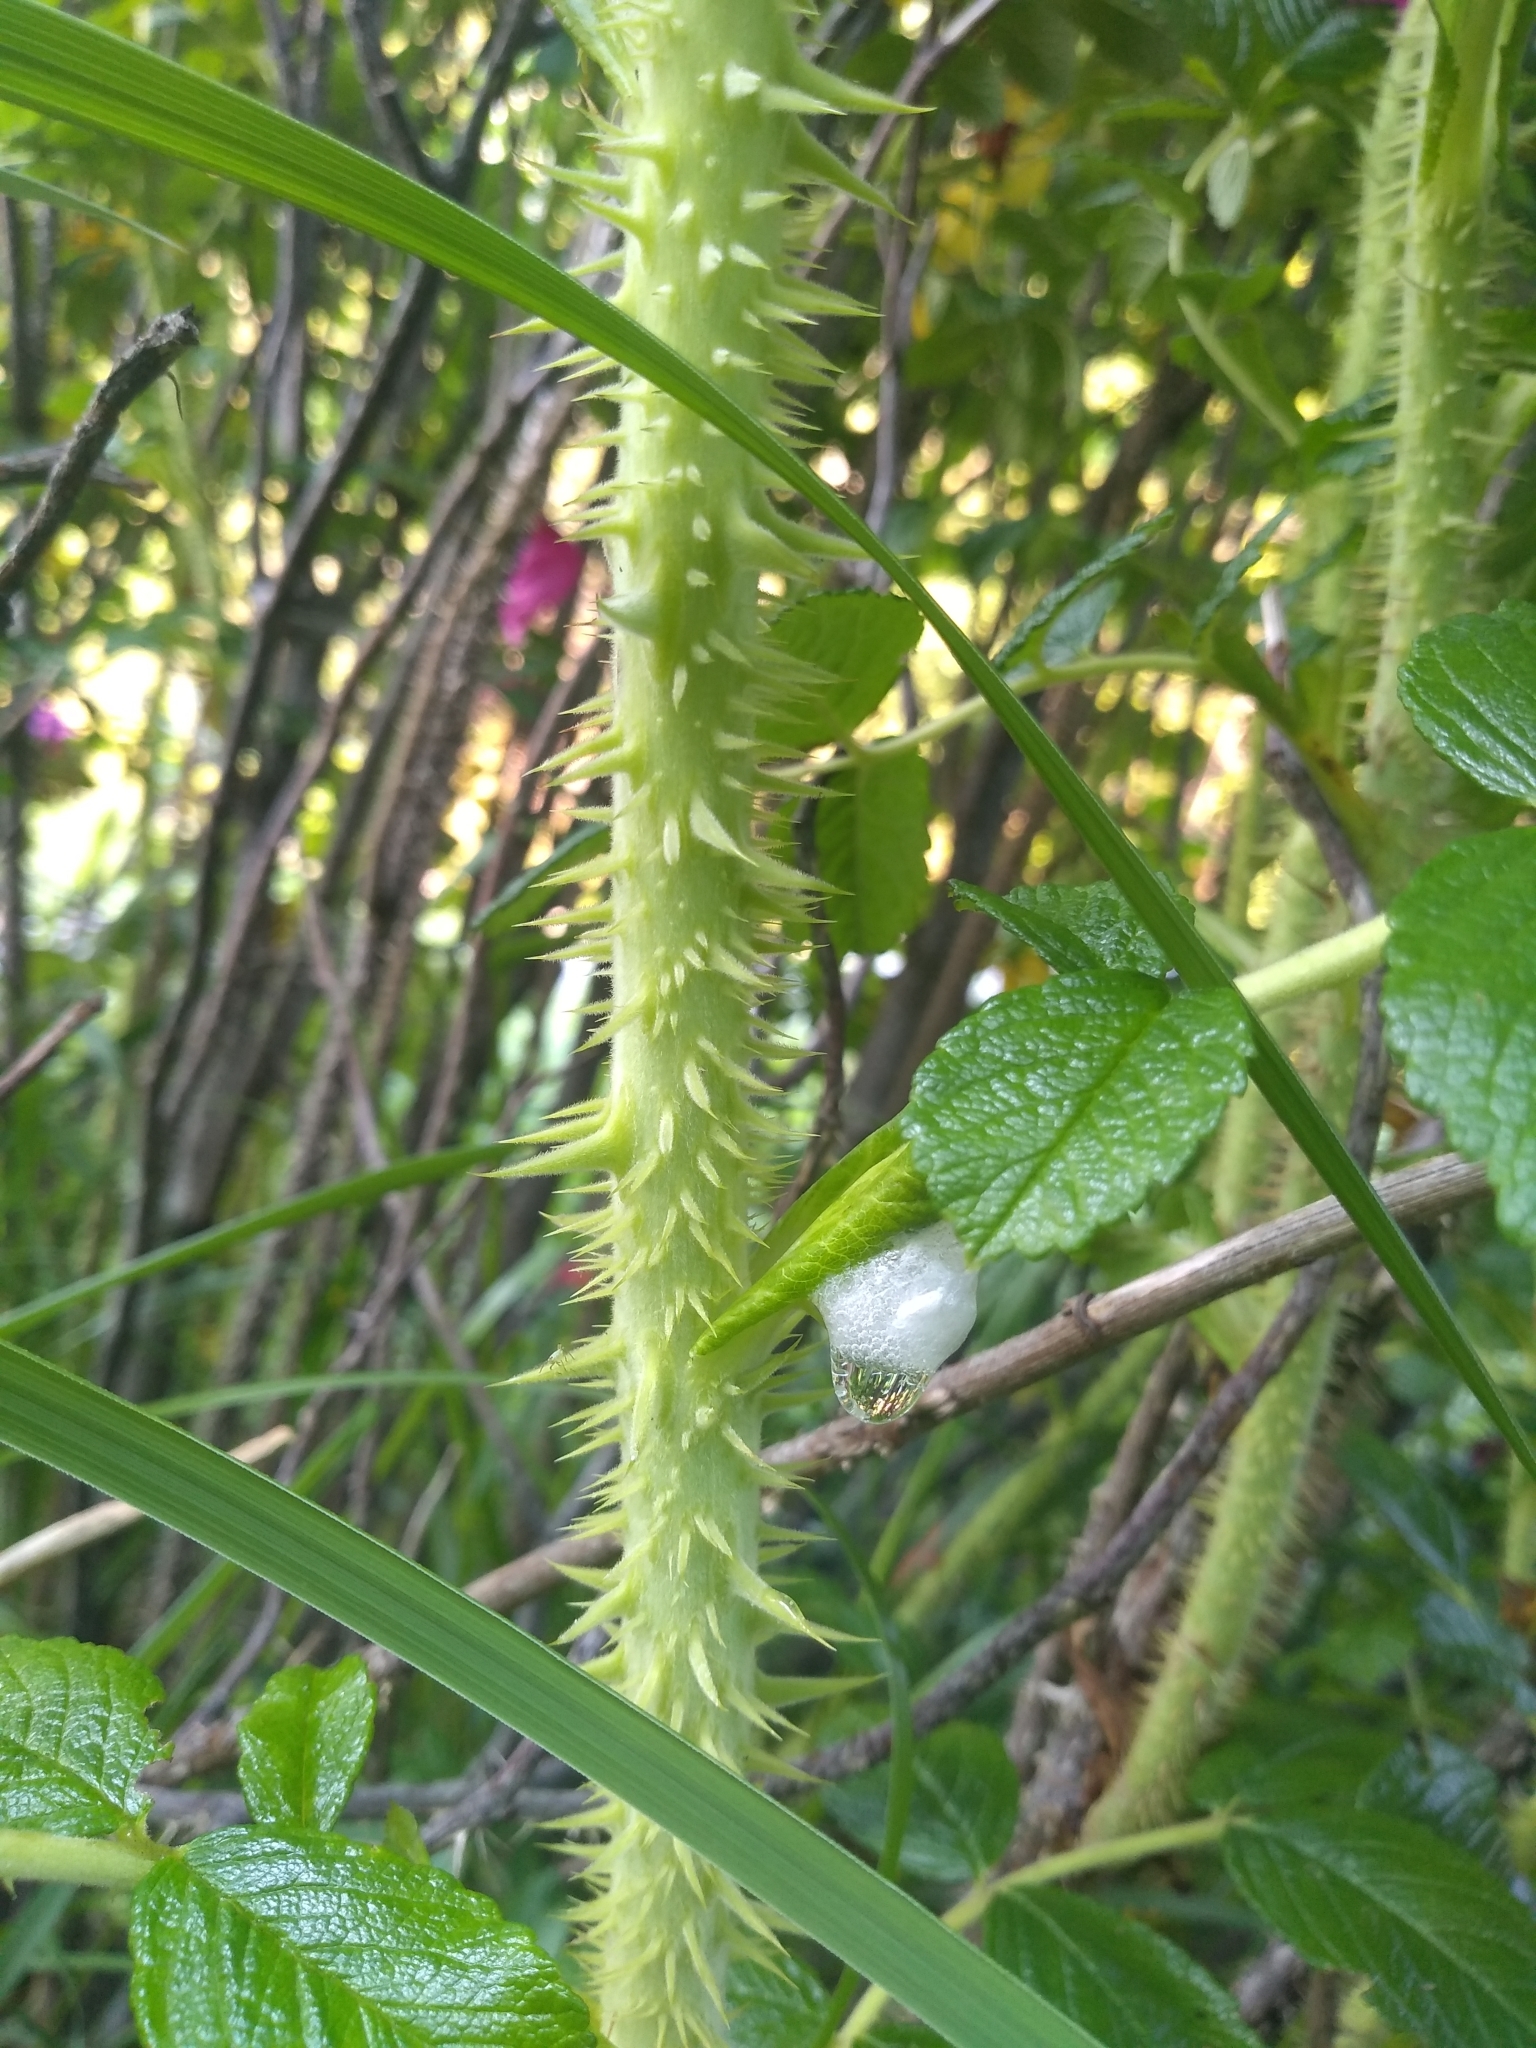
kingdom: Plantae
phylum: Tracheophyta
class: Magnoliopsida
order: Rosales
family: Rosaceae
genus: Rosa
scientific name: Rosa rugosa
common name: Japanese rose
